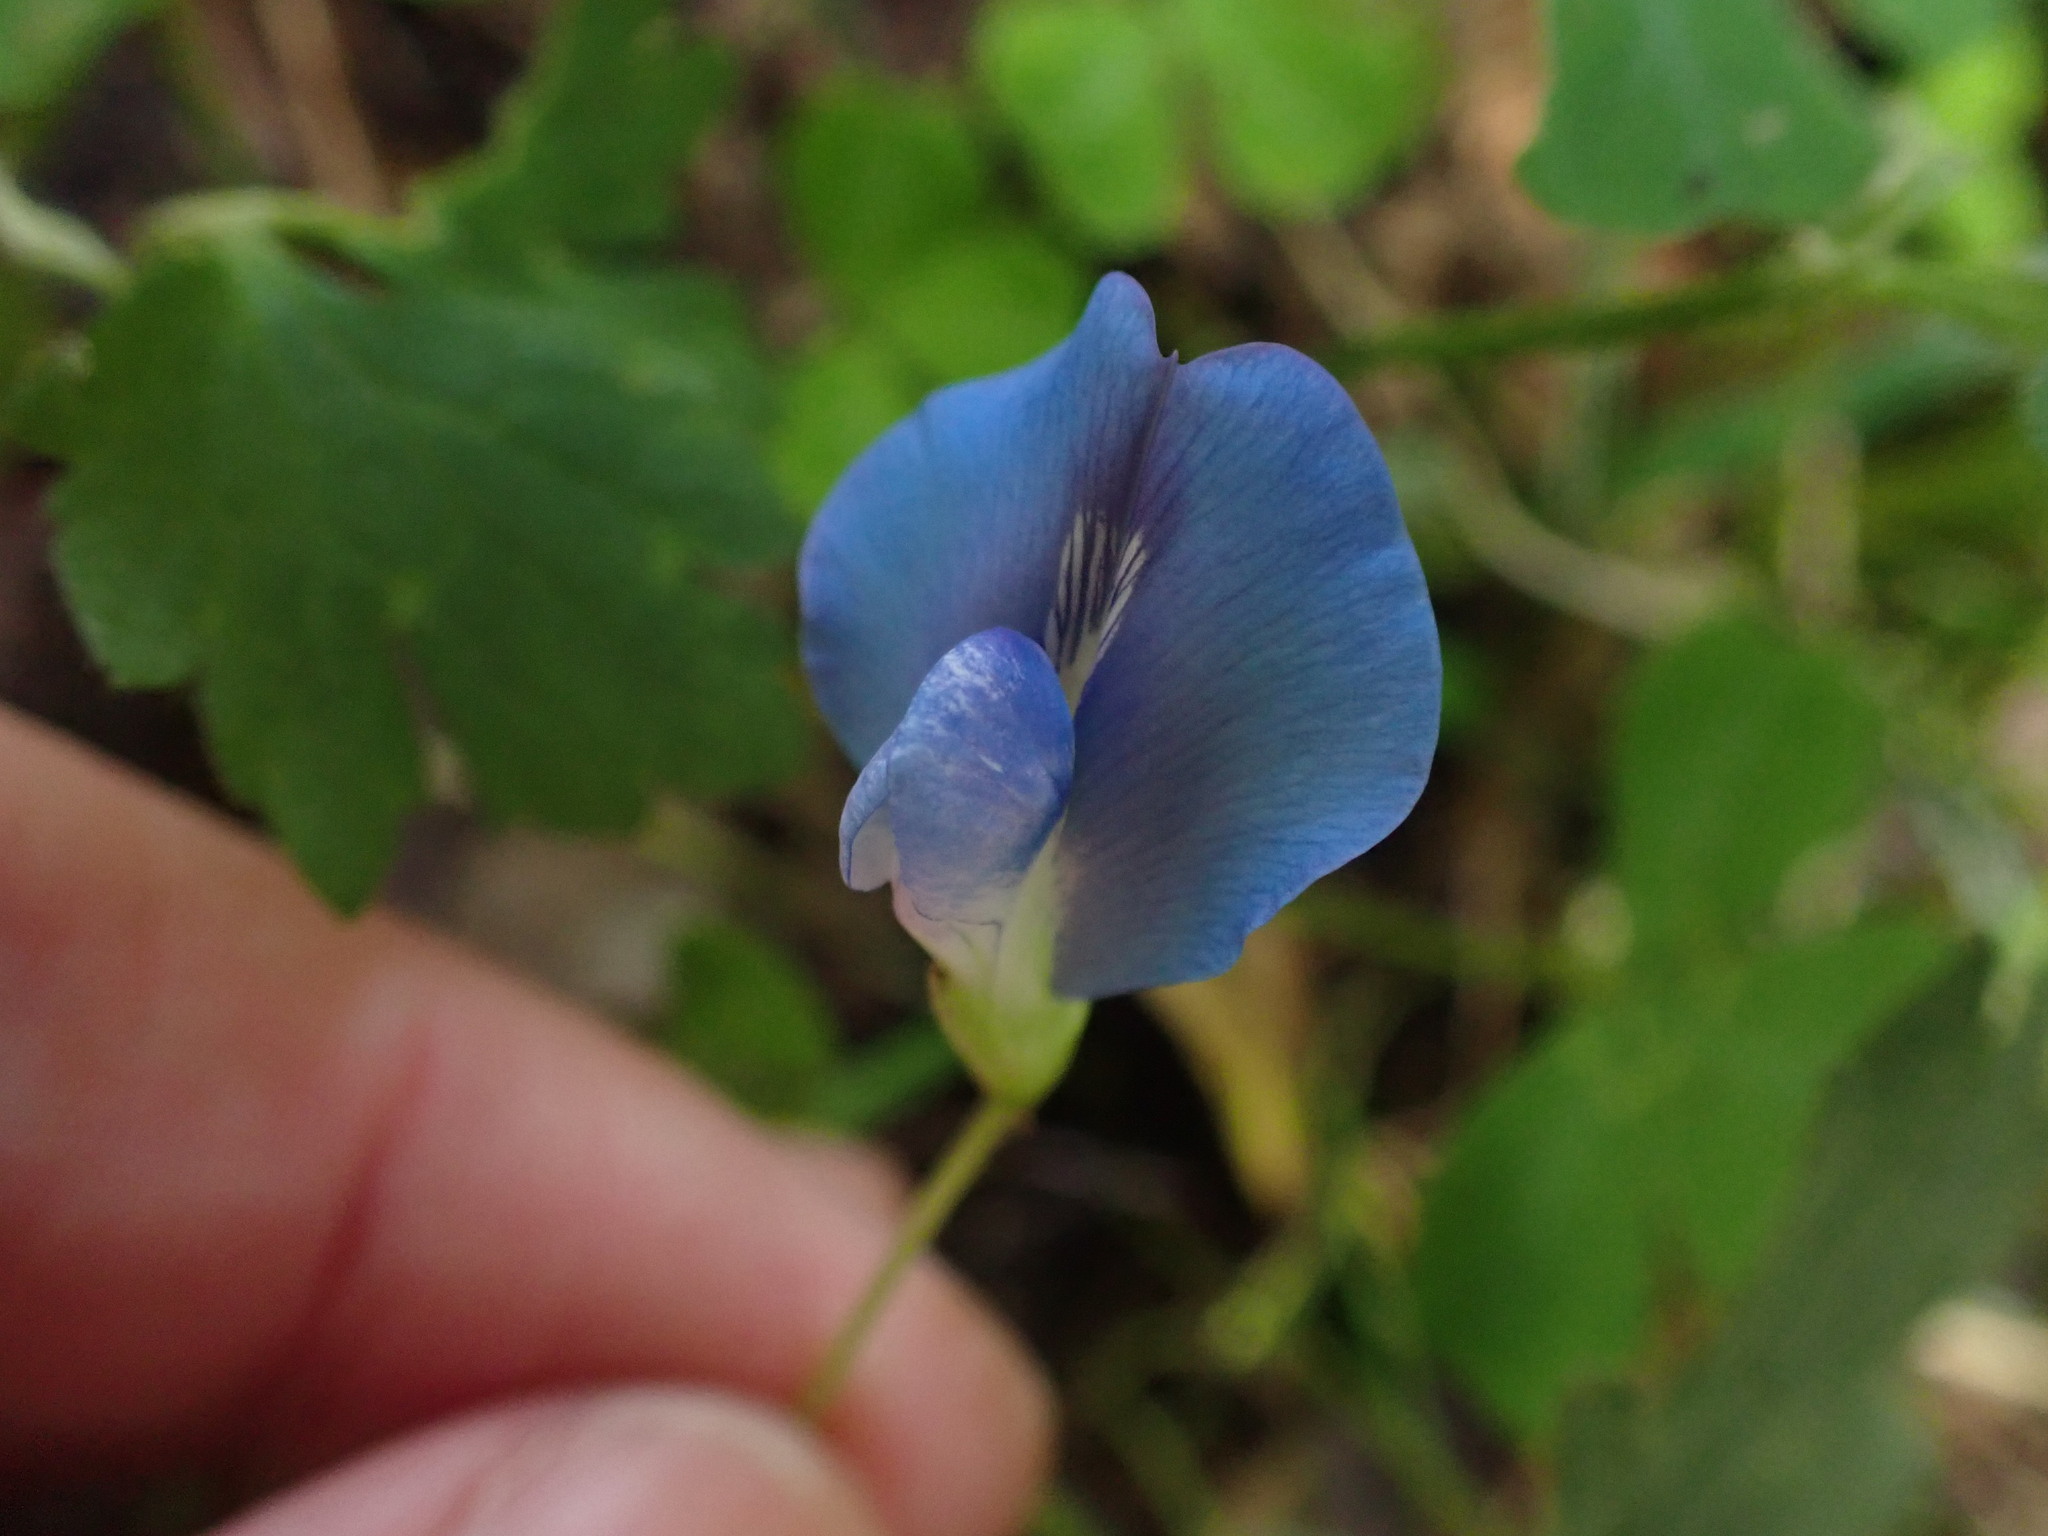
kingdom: Plantae
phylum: Tracheophyta
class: Magnoliopsida
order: Fabales
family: Fabaceae
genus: Parochetus
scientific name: Parochetus communis
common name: Blue oxalis
